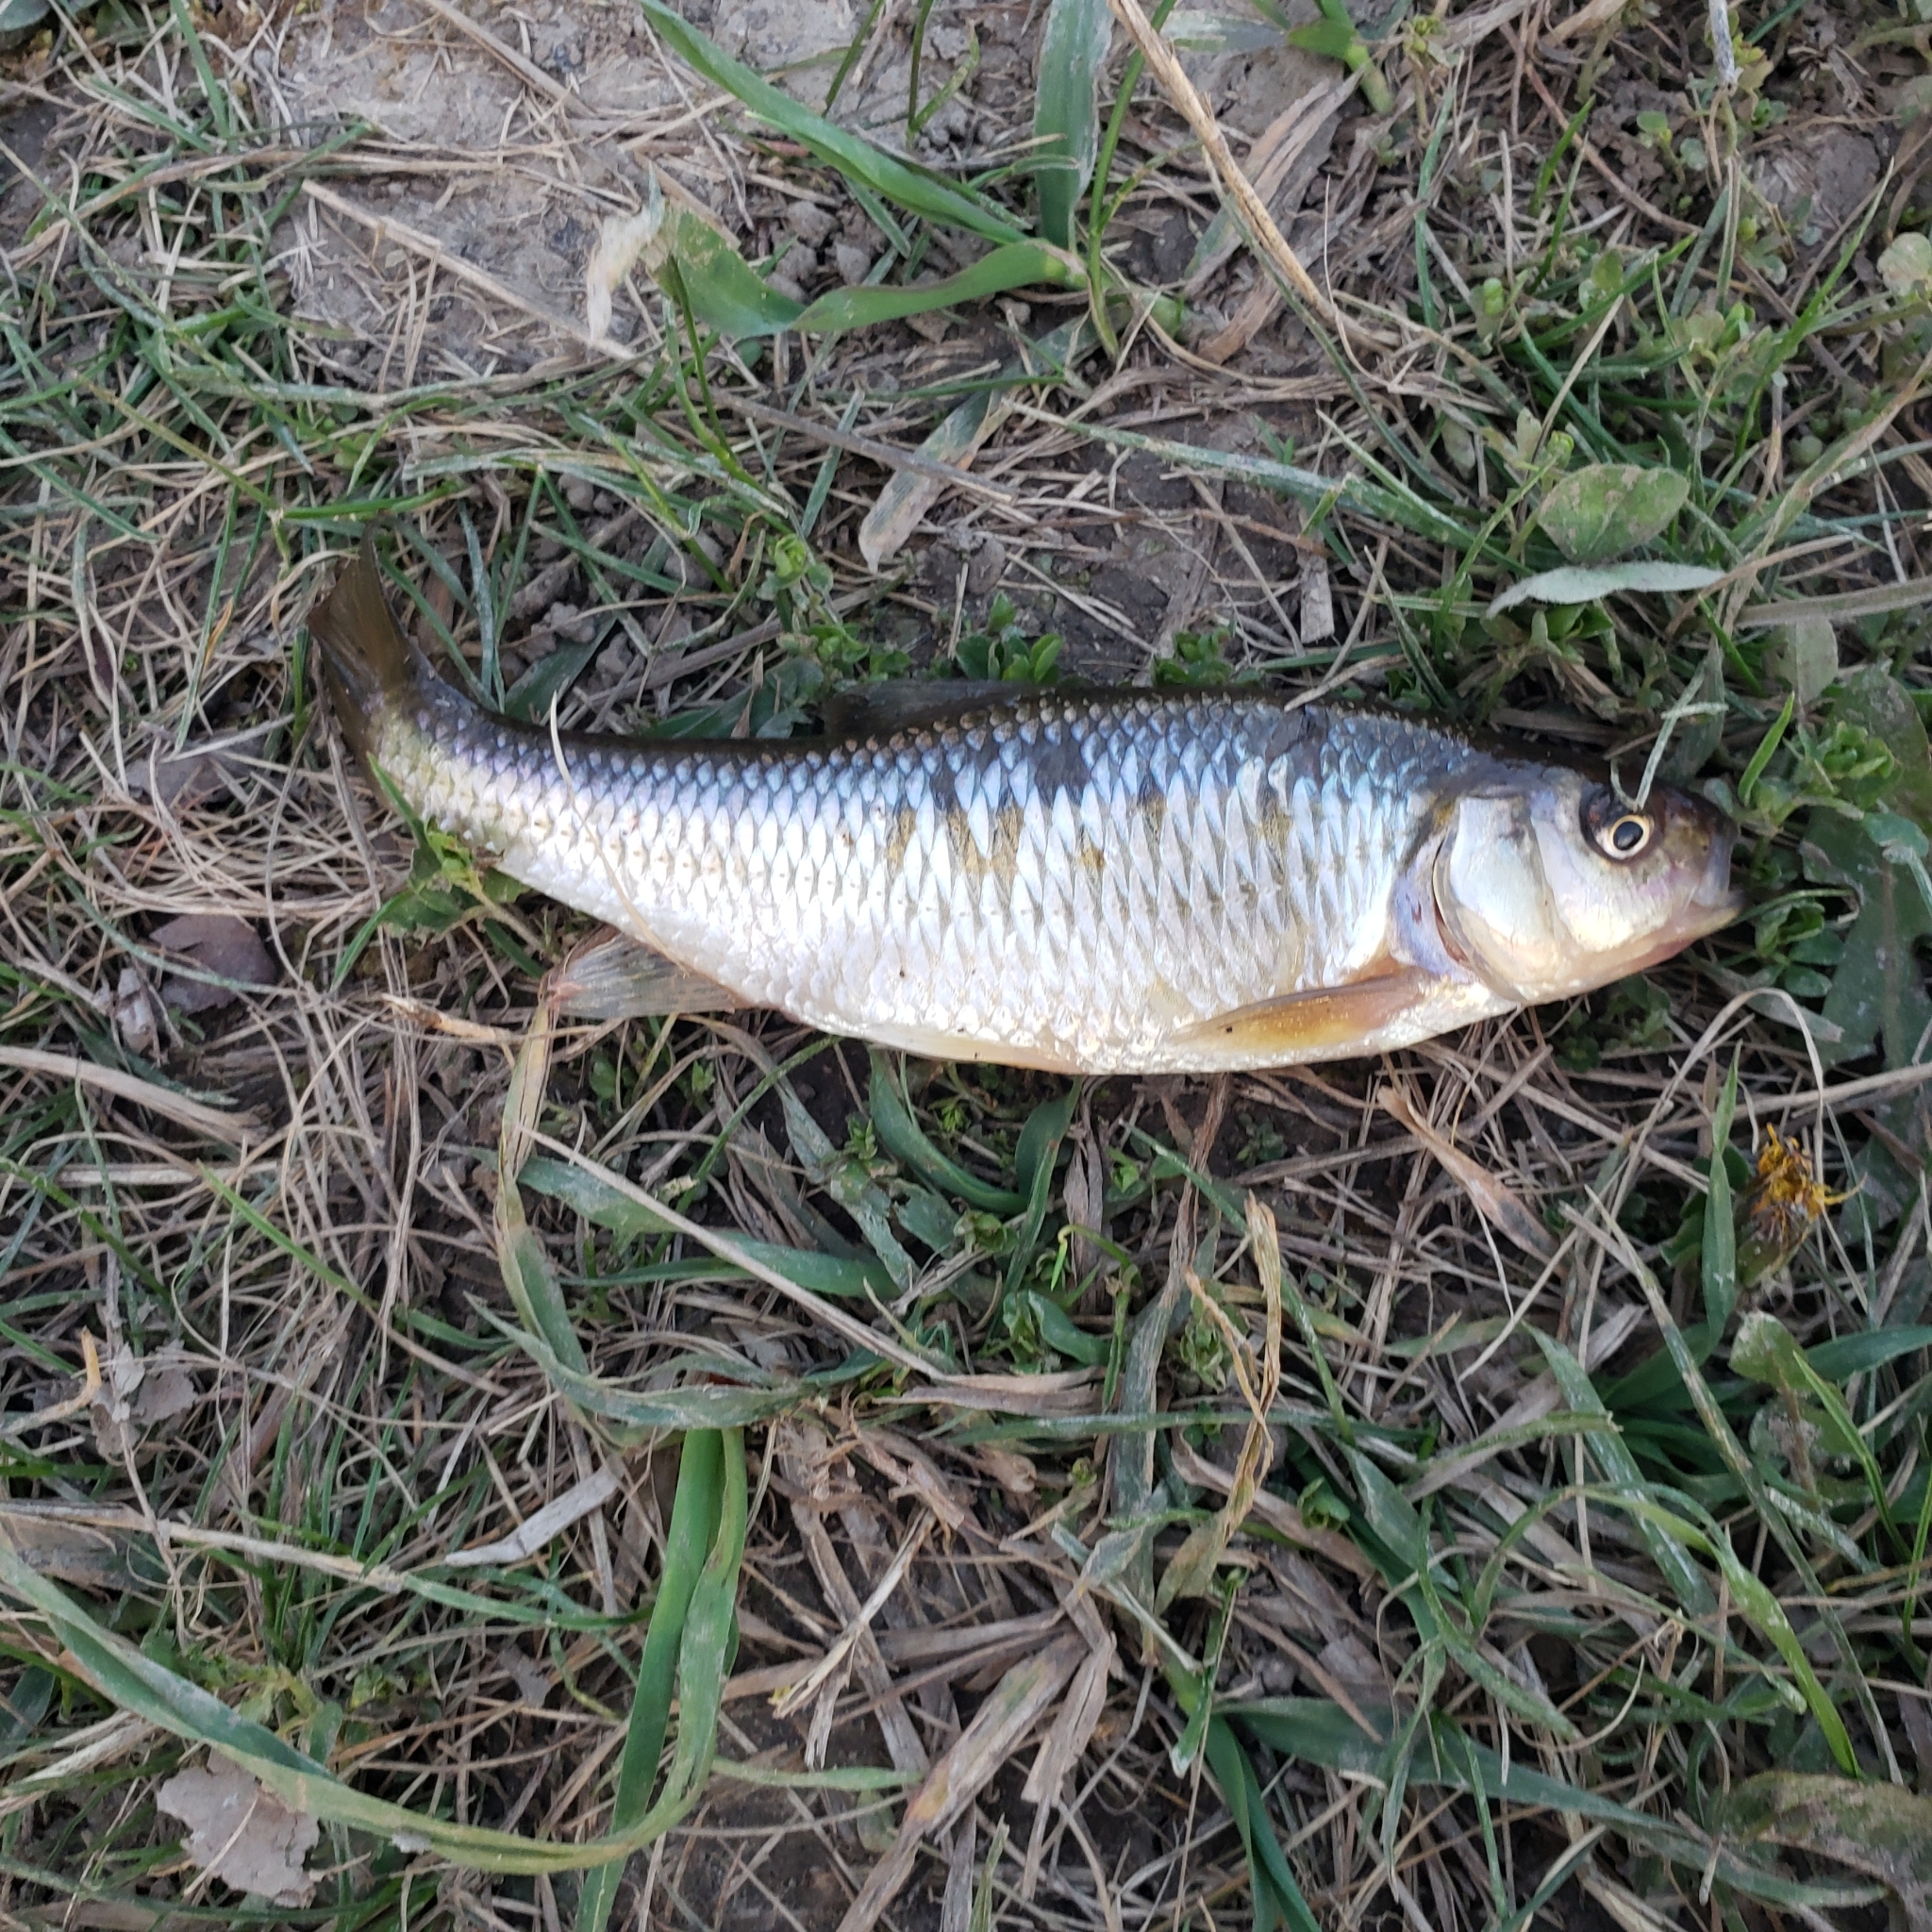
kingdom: Animalia
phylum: Chordata
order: Cypriniformes
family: Cyprinidae
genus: Luxilus
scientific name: Luxilus cornutus
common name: Common shiner
